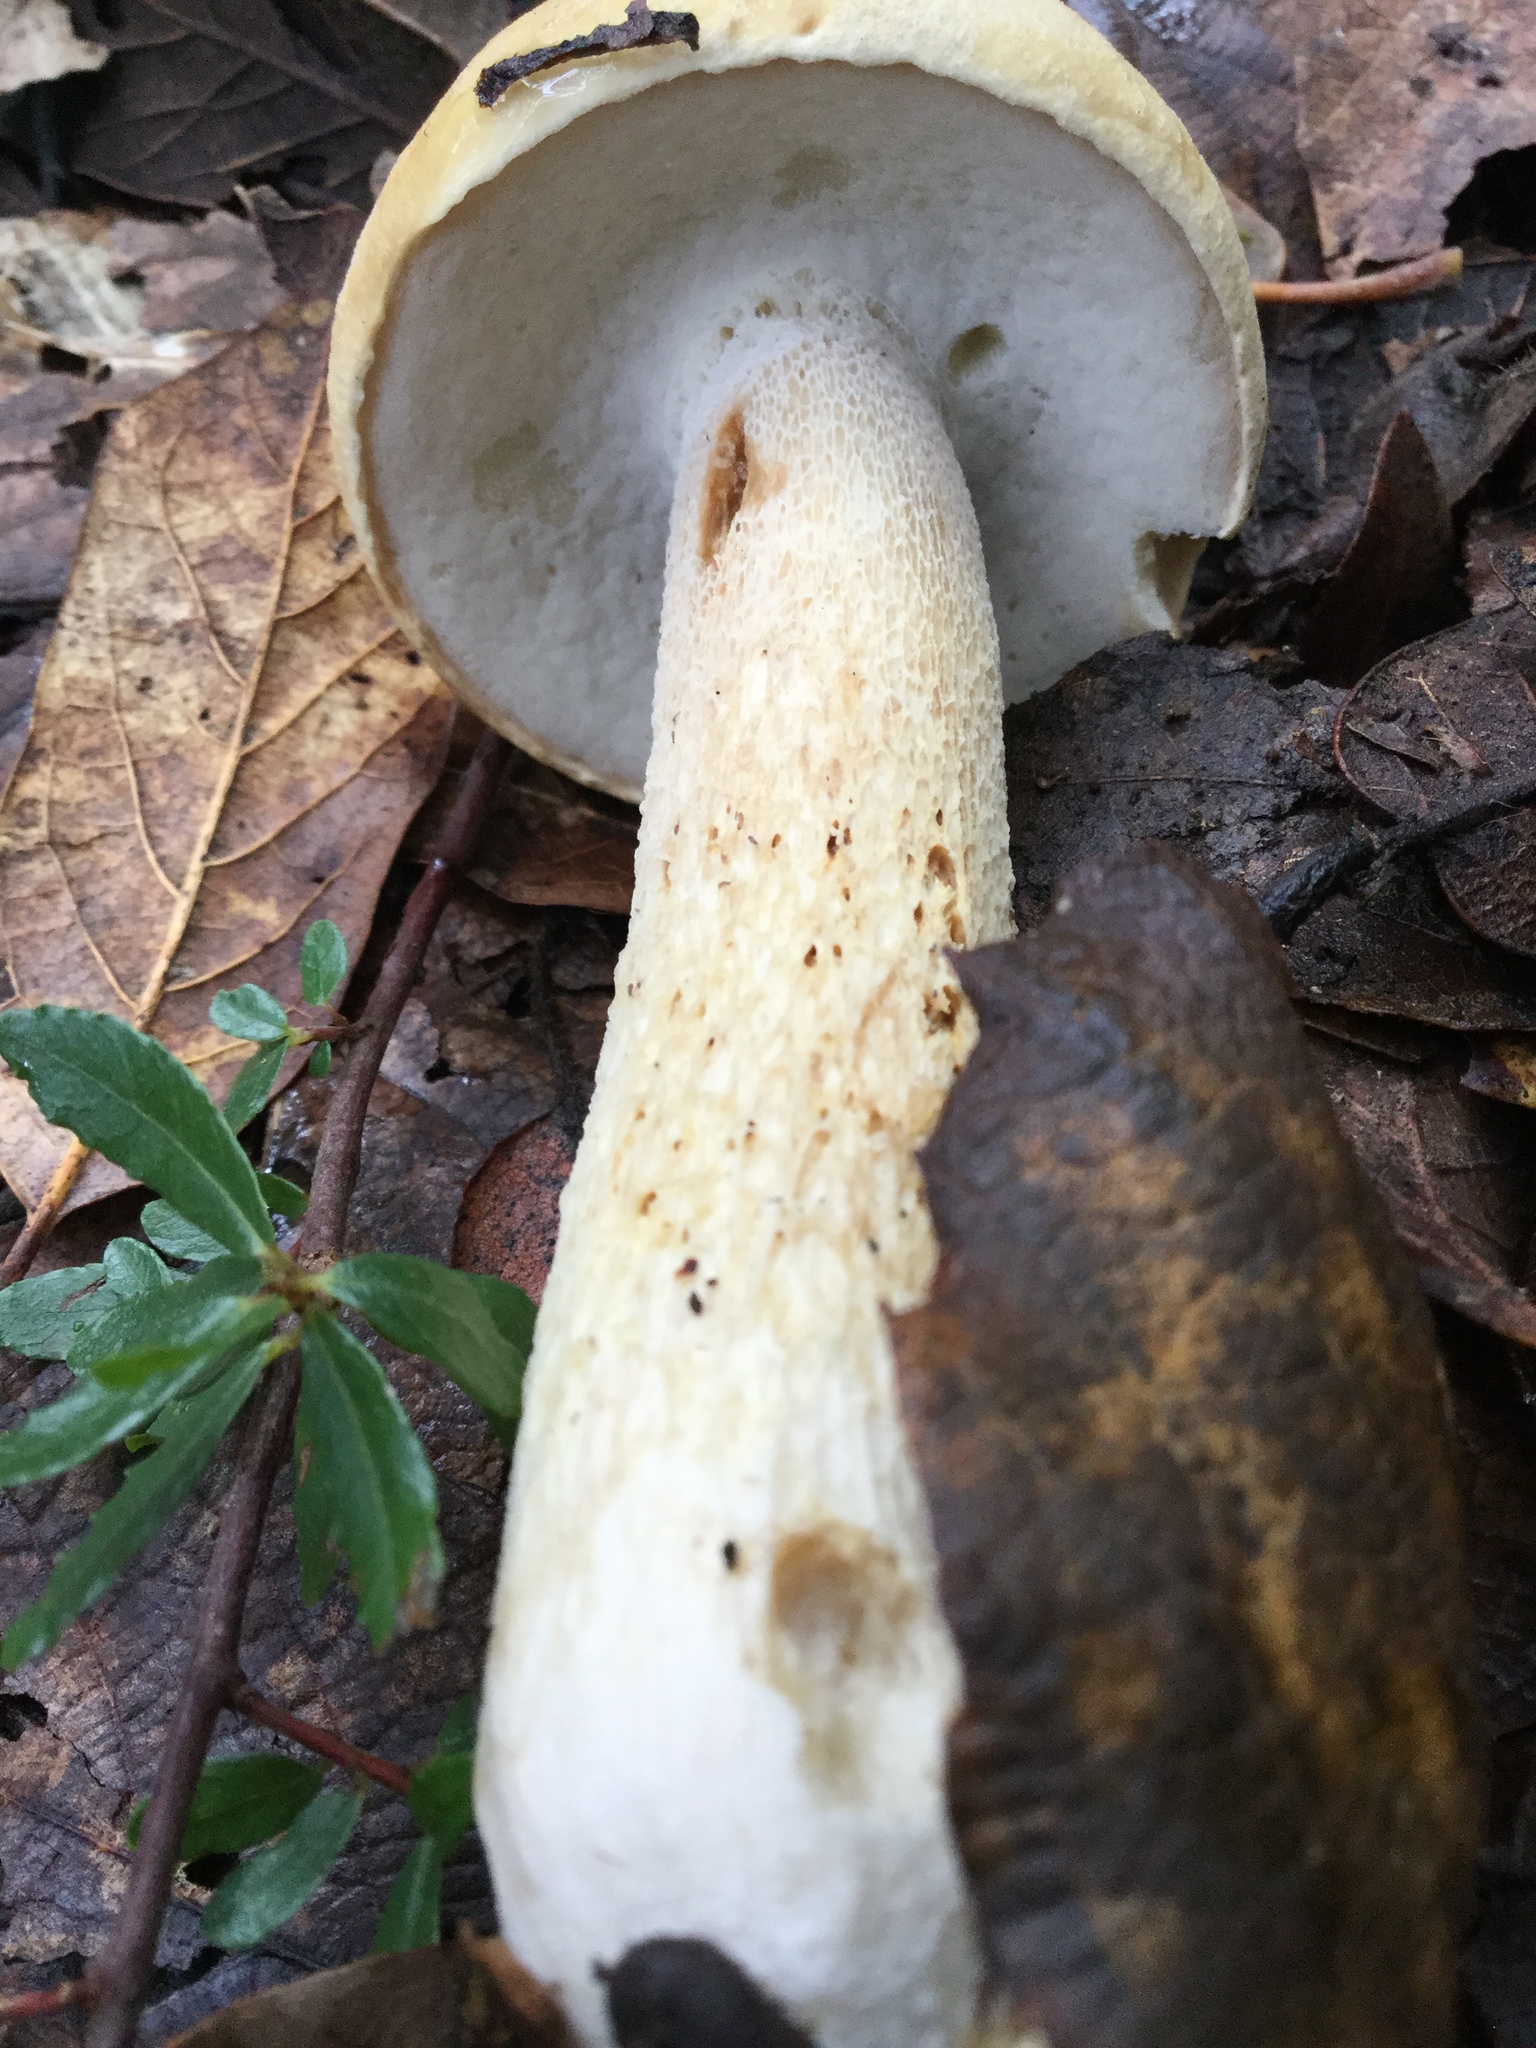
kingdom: Fungi
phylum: Basidiomycota
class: Agaricomycetes
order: Boletales
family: Boletaceae
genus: Boletus
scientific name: Boletus quercophilus
